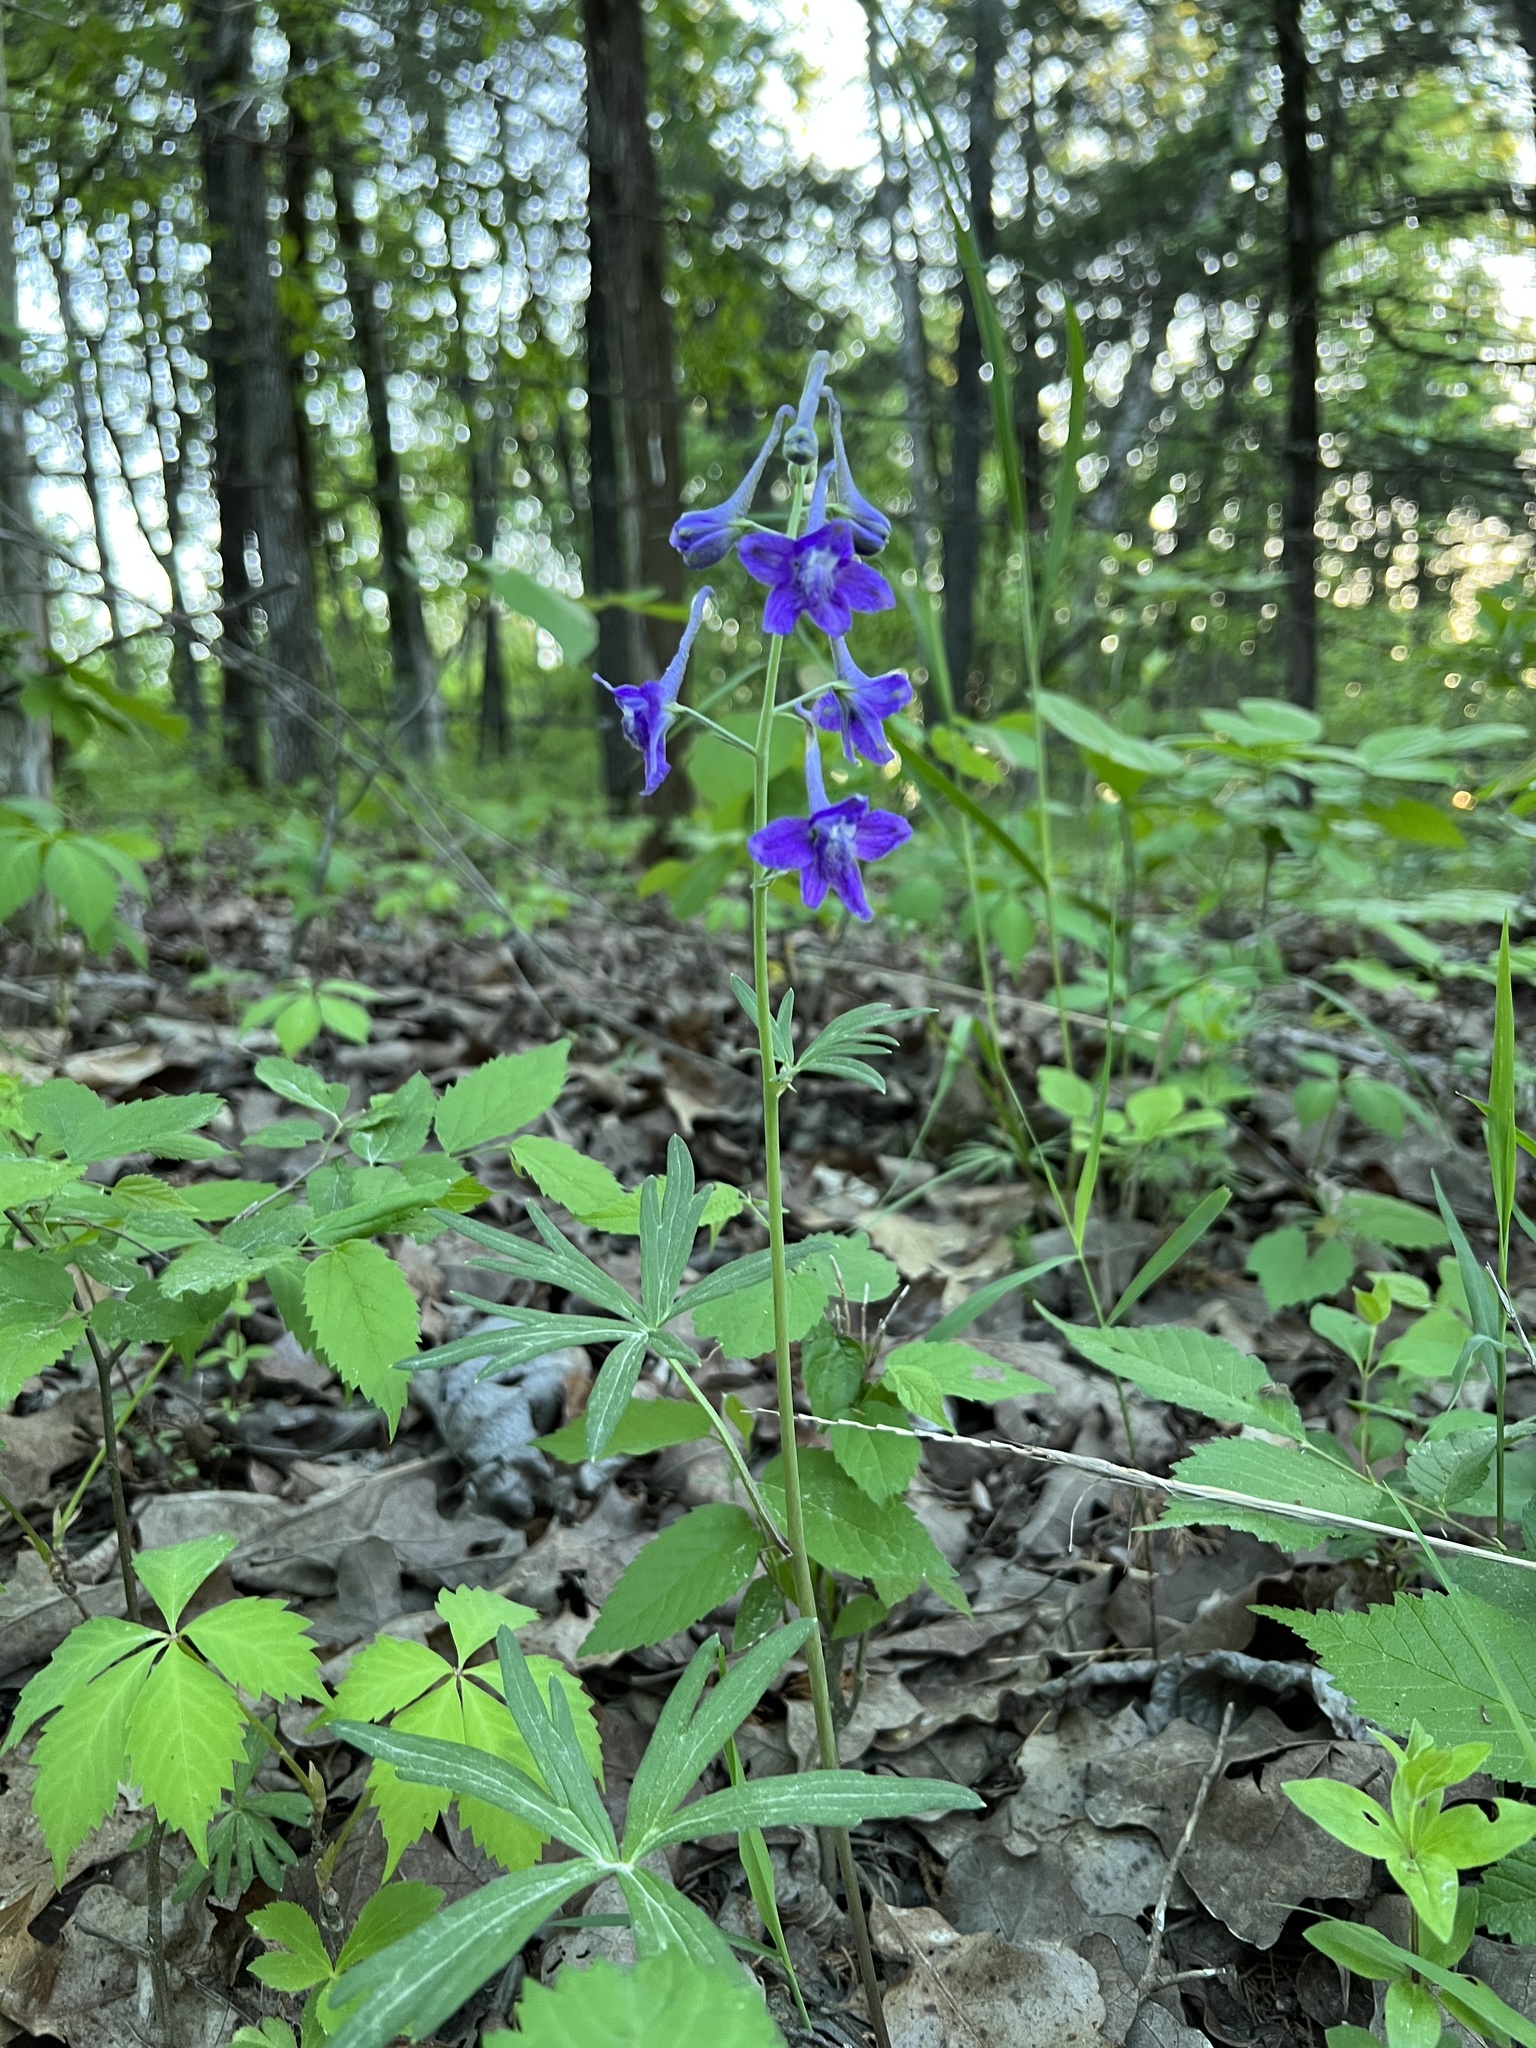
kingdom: Plantae
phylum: Tracheophyta
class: Magnoliopsida
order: Ranunculales
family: Ranunculaceae
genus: Delphinium
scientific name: Delphinium tricorne
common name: Dwarf larkspur
